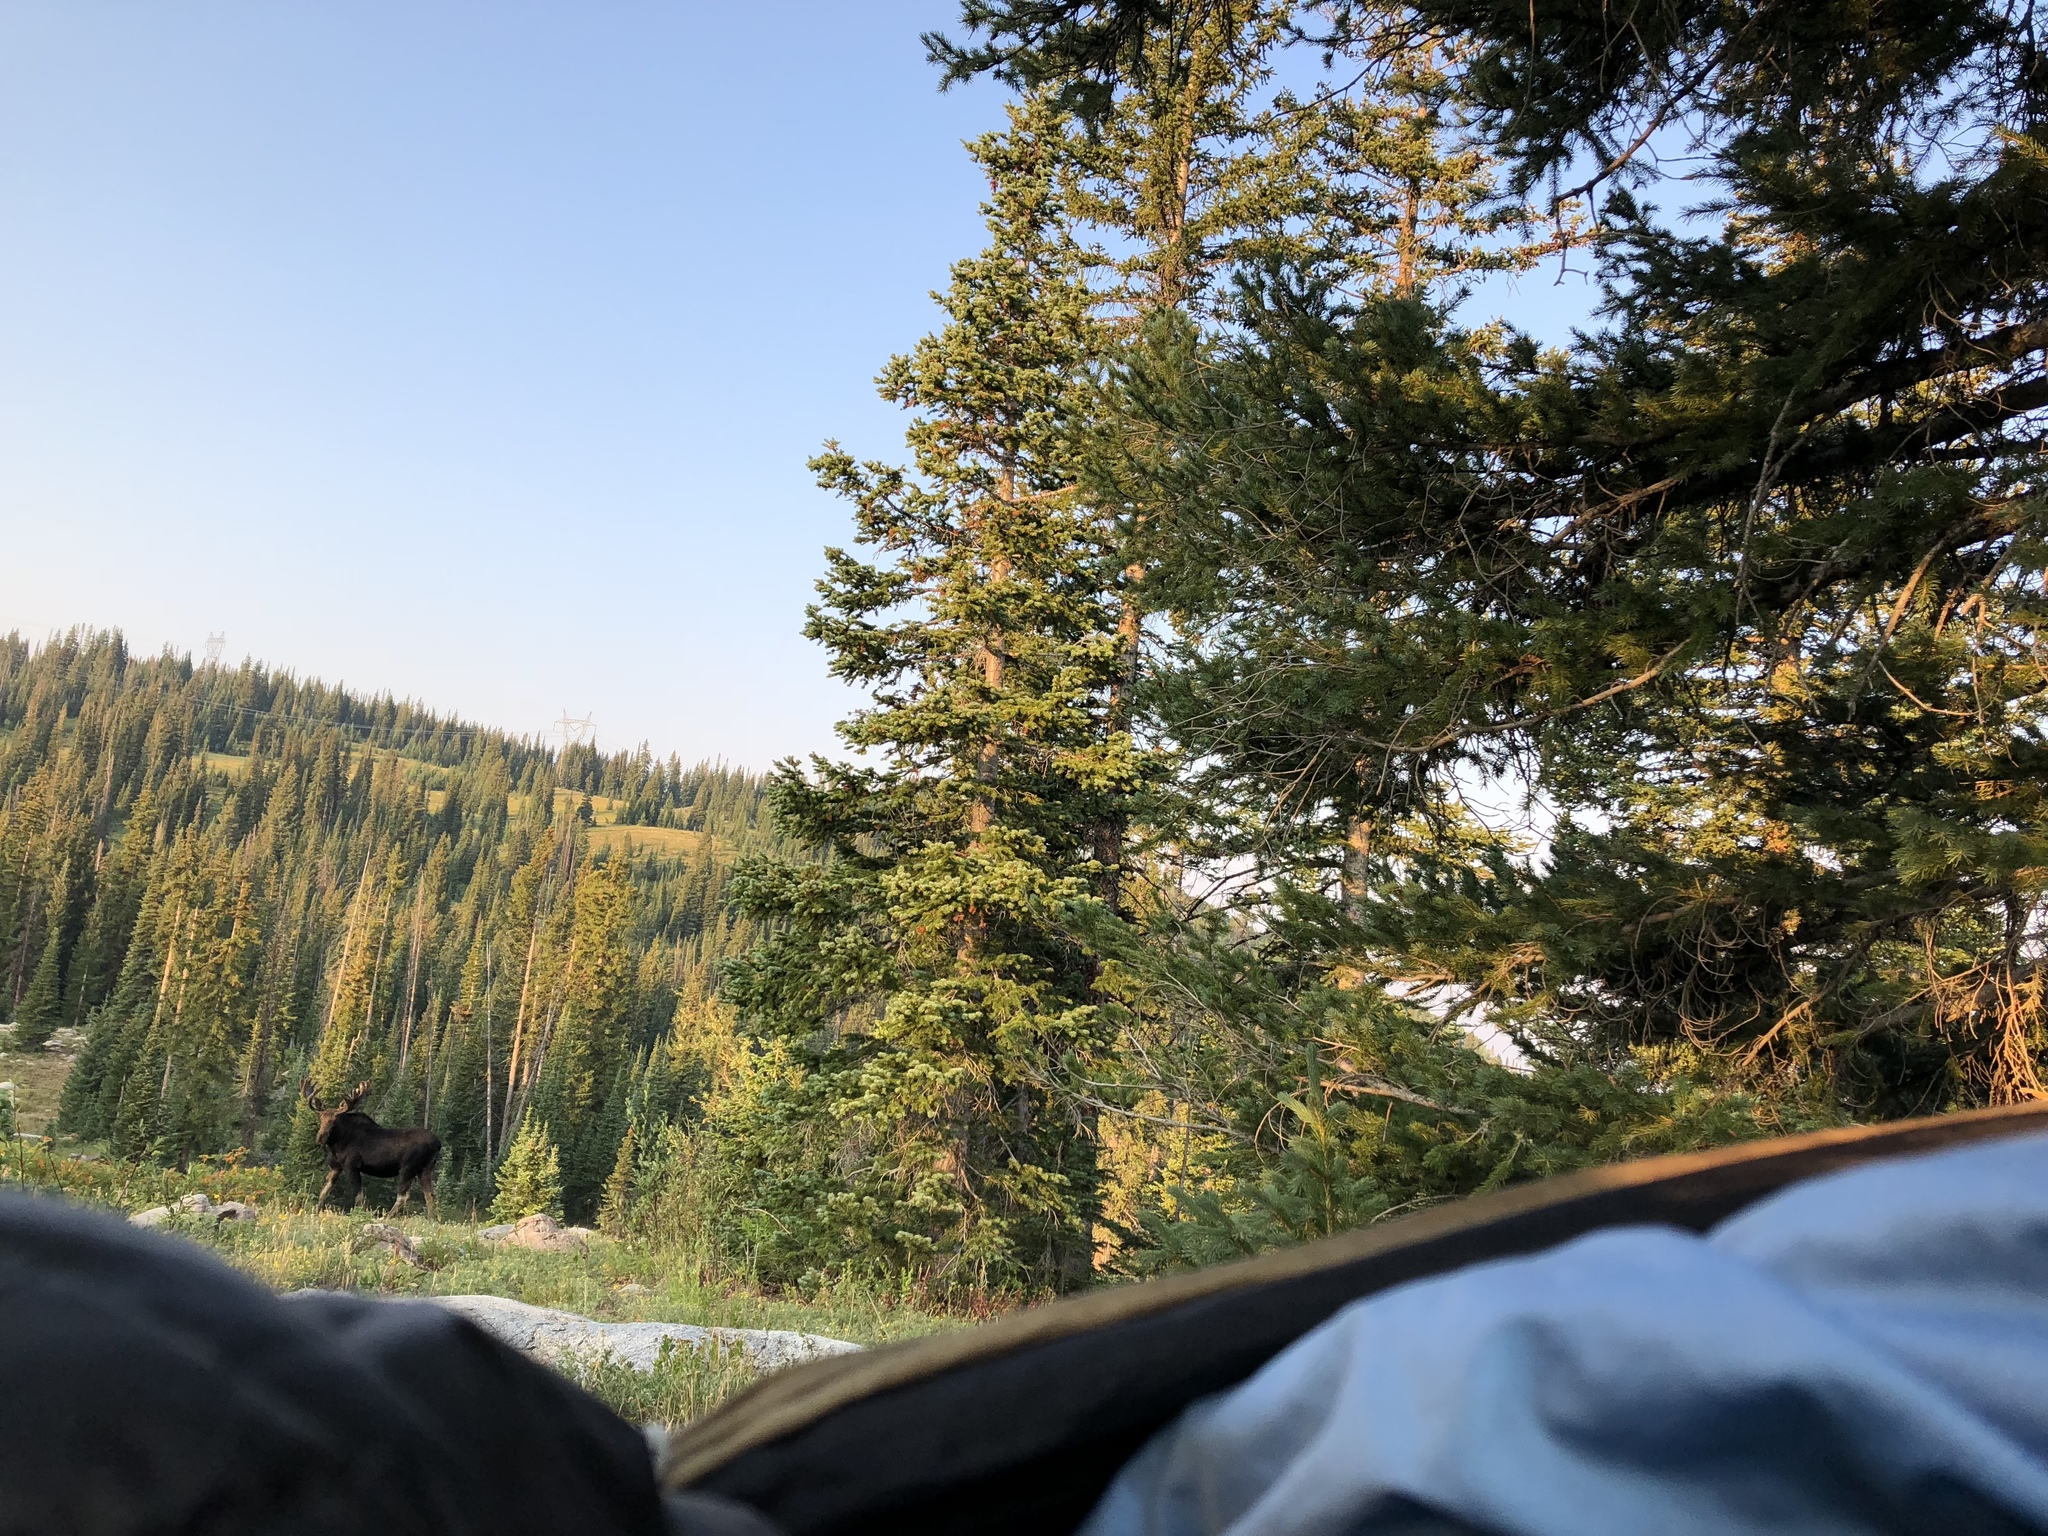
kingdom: Animalia
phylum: Chordata
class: Mammalia
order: Artiodactyla
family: Cervidae
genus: Alces
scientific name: Alces alces
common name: Moose
